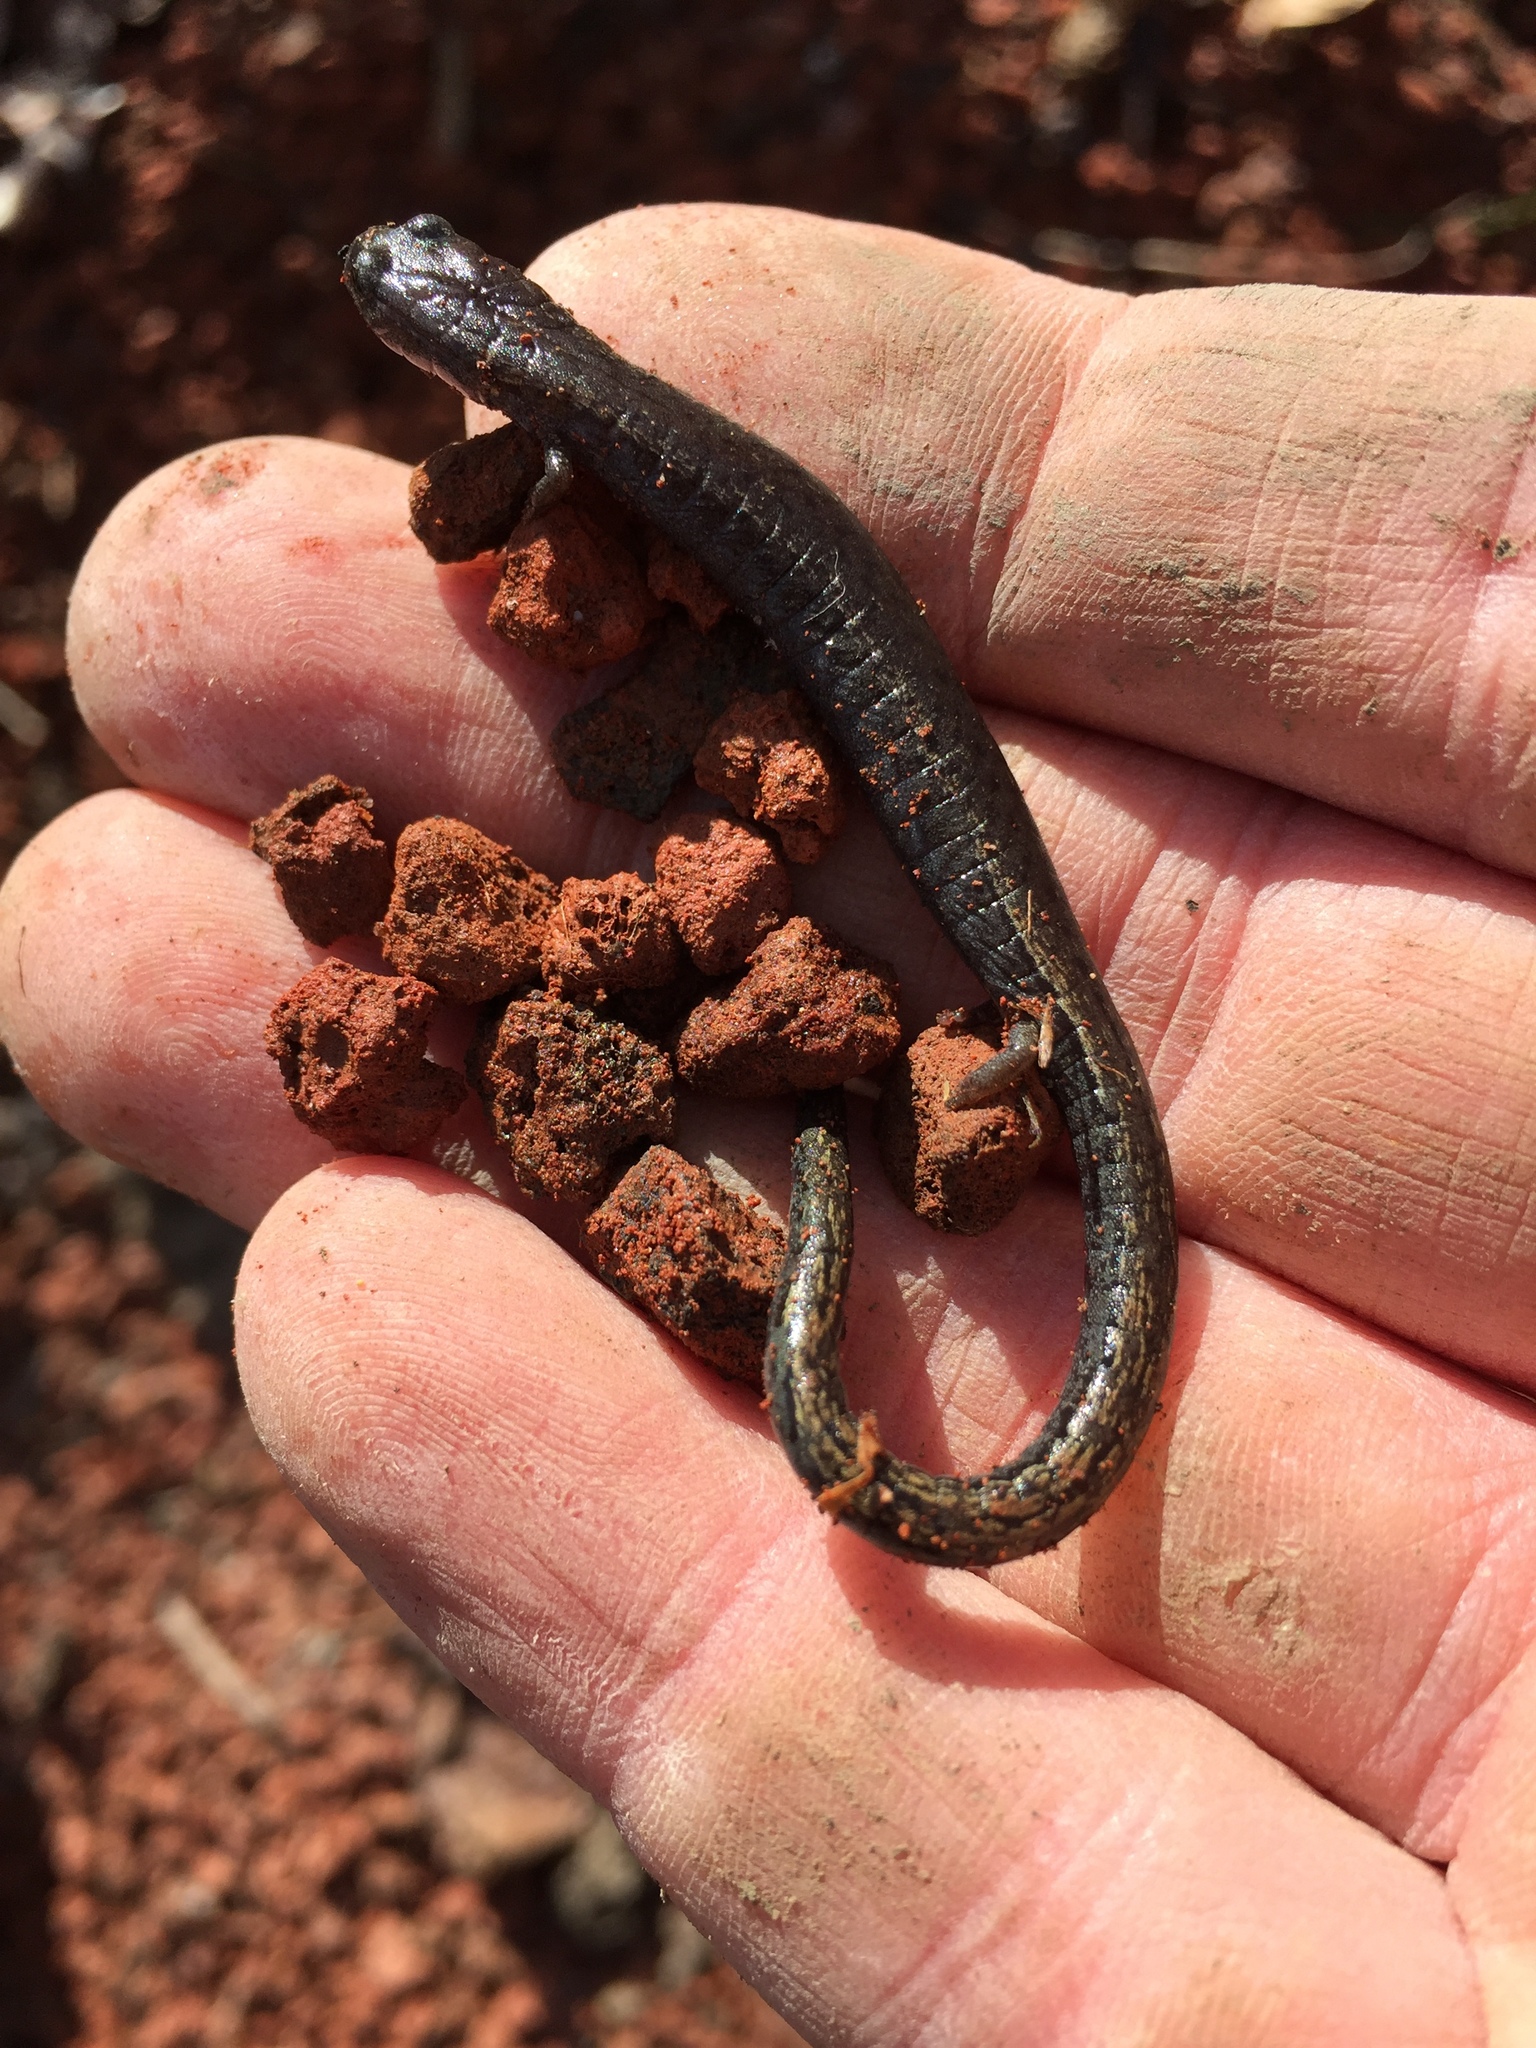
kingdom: Animalia
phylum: Chordata
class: Amphibia
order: Caudata
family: Plethodontidae
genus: Batrachoseps
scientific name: Batrachoseps attenuatus
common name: California slender salamander
